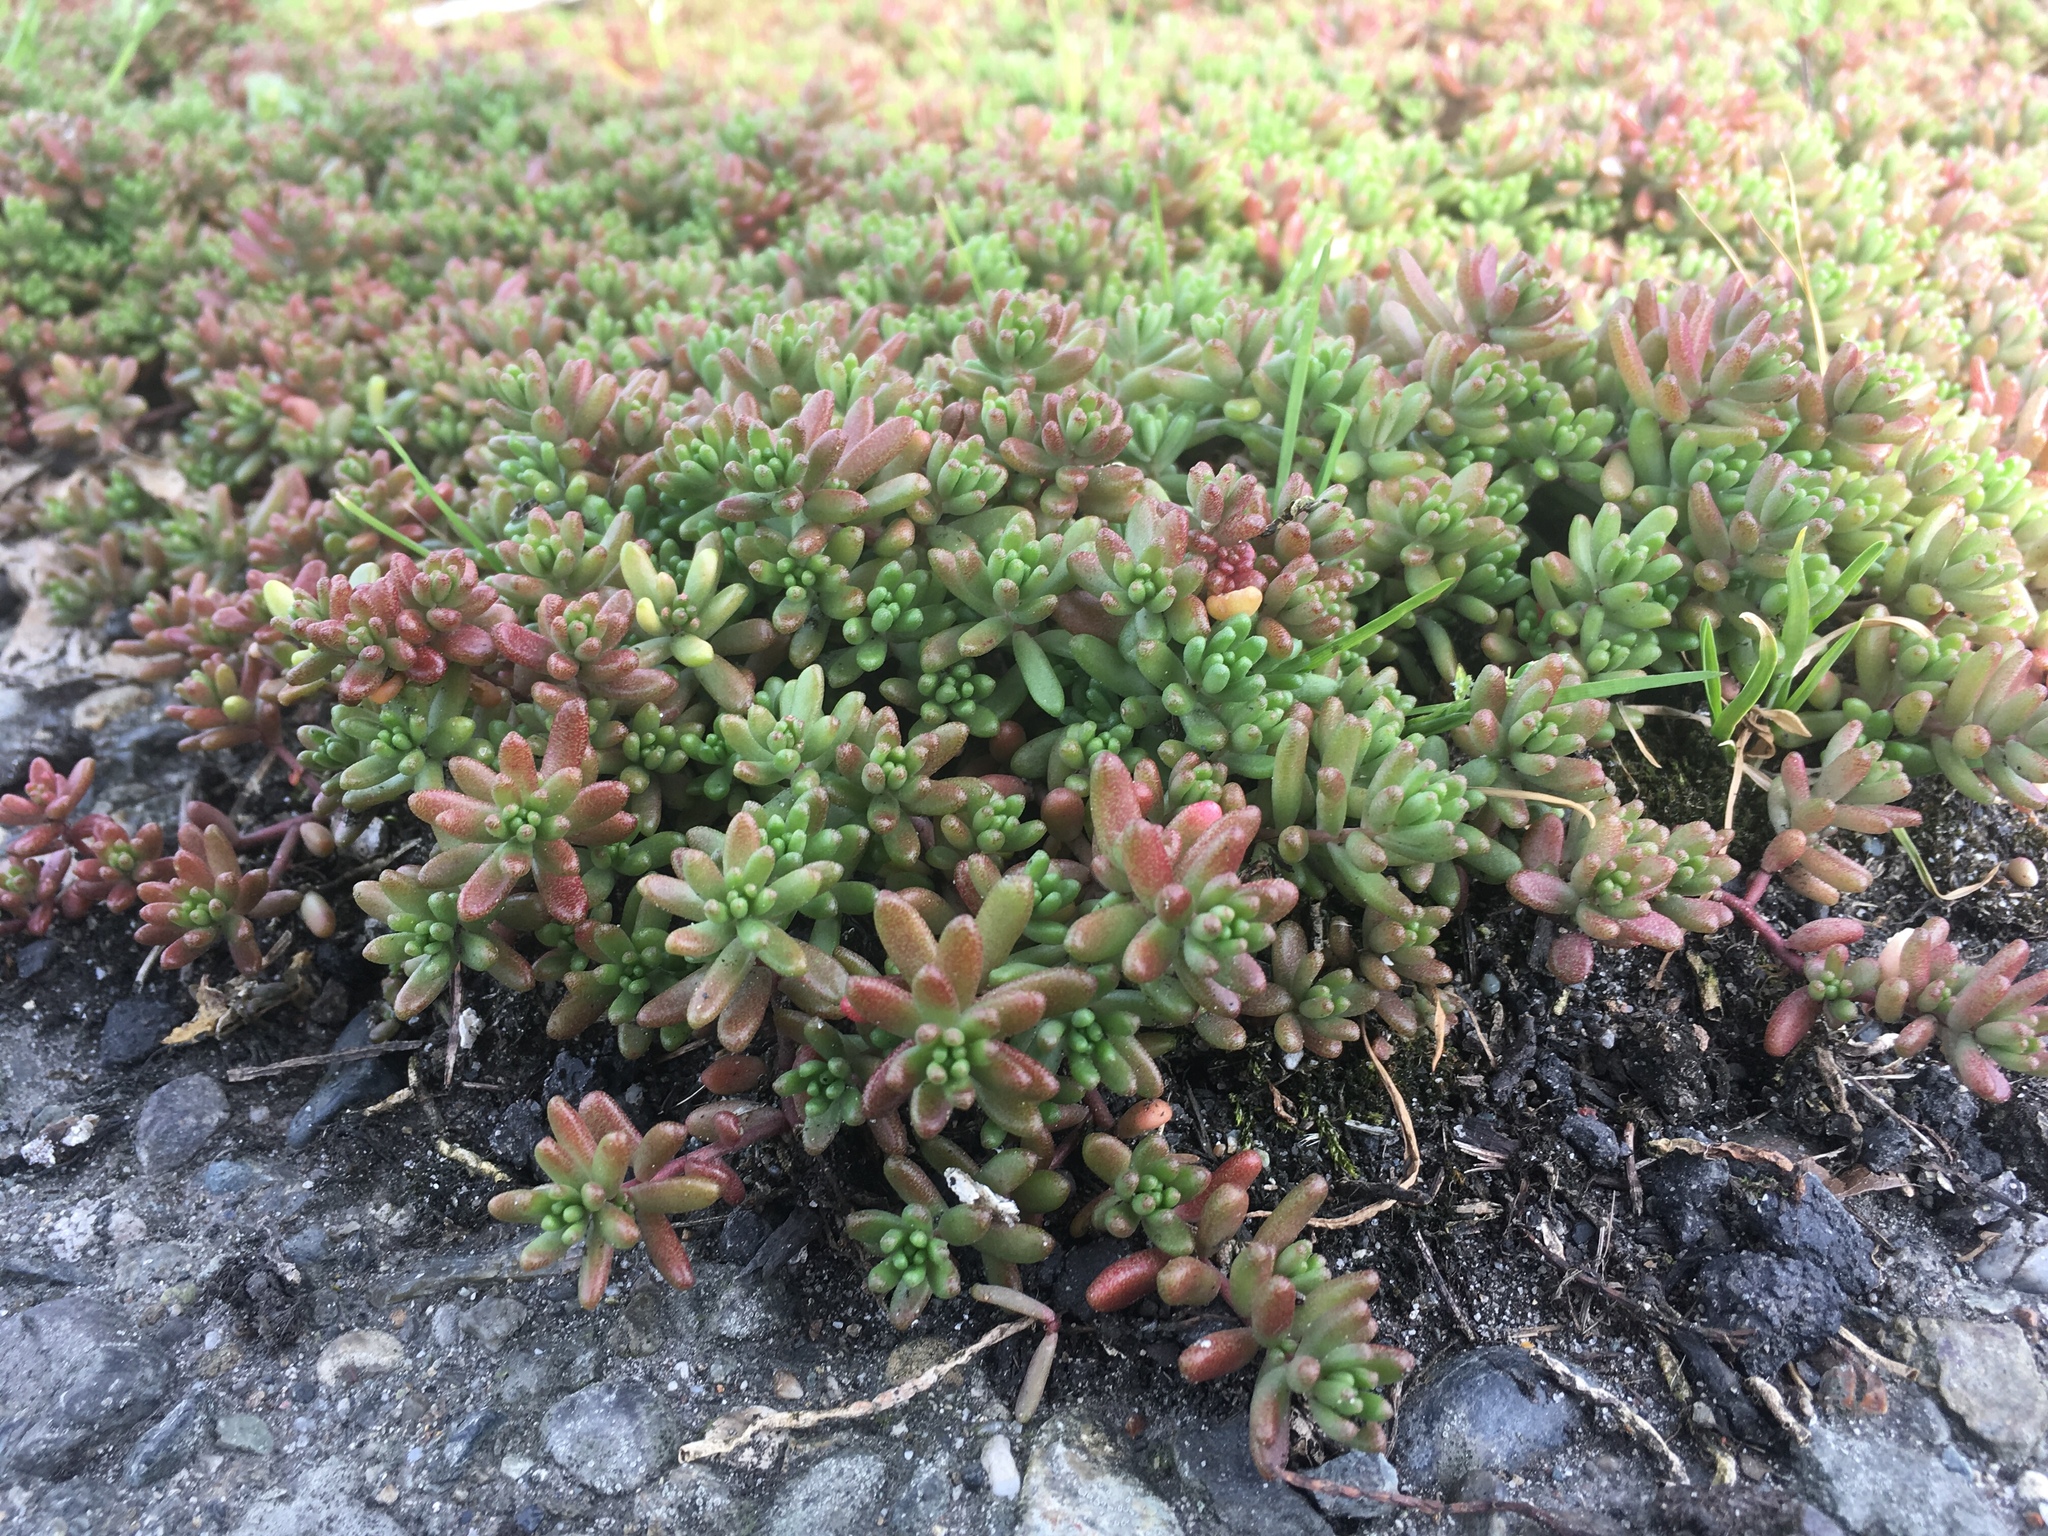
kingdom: Plantae
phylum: Tracheophyta
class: Magnoliopsida
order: Saxifragales
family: Crassulaceae
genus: Sedum
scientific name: Sedum album
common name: White stonecrop
